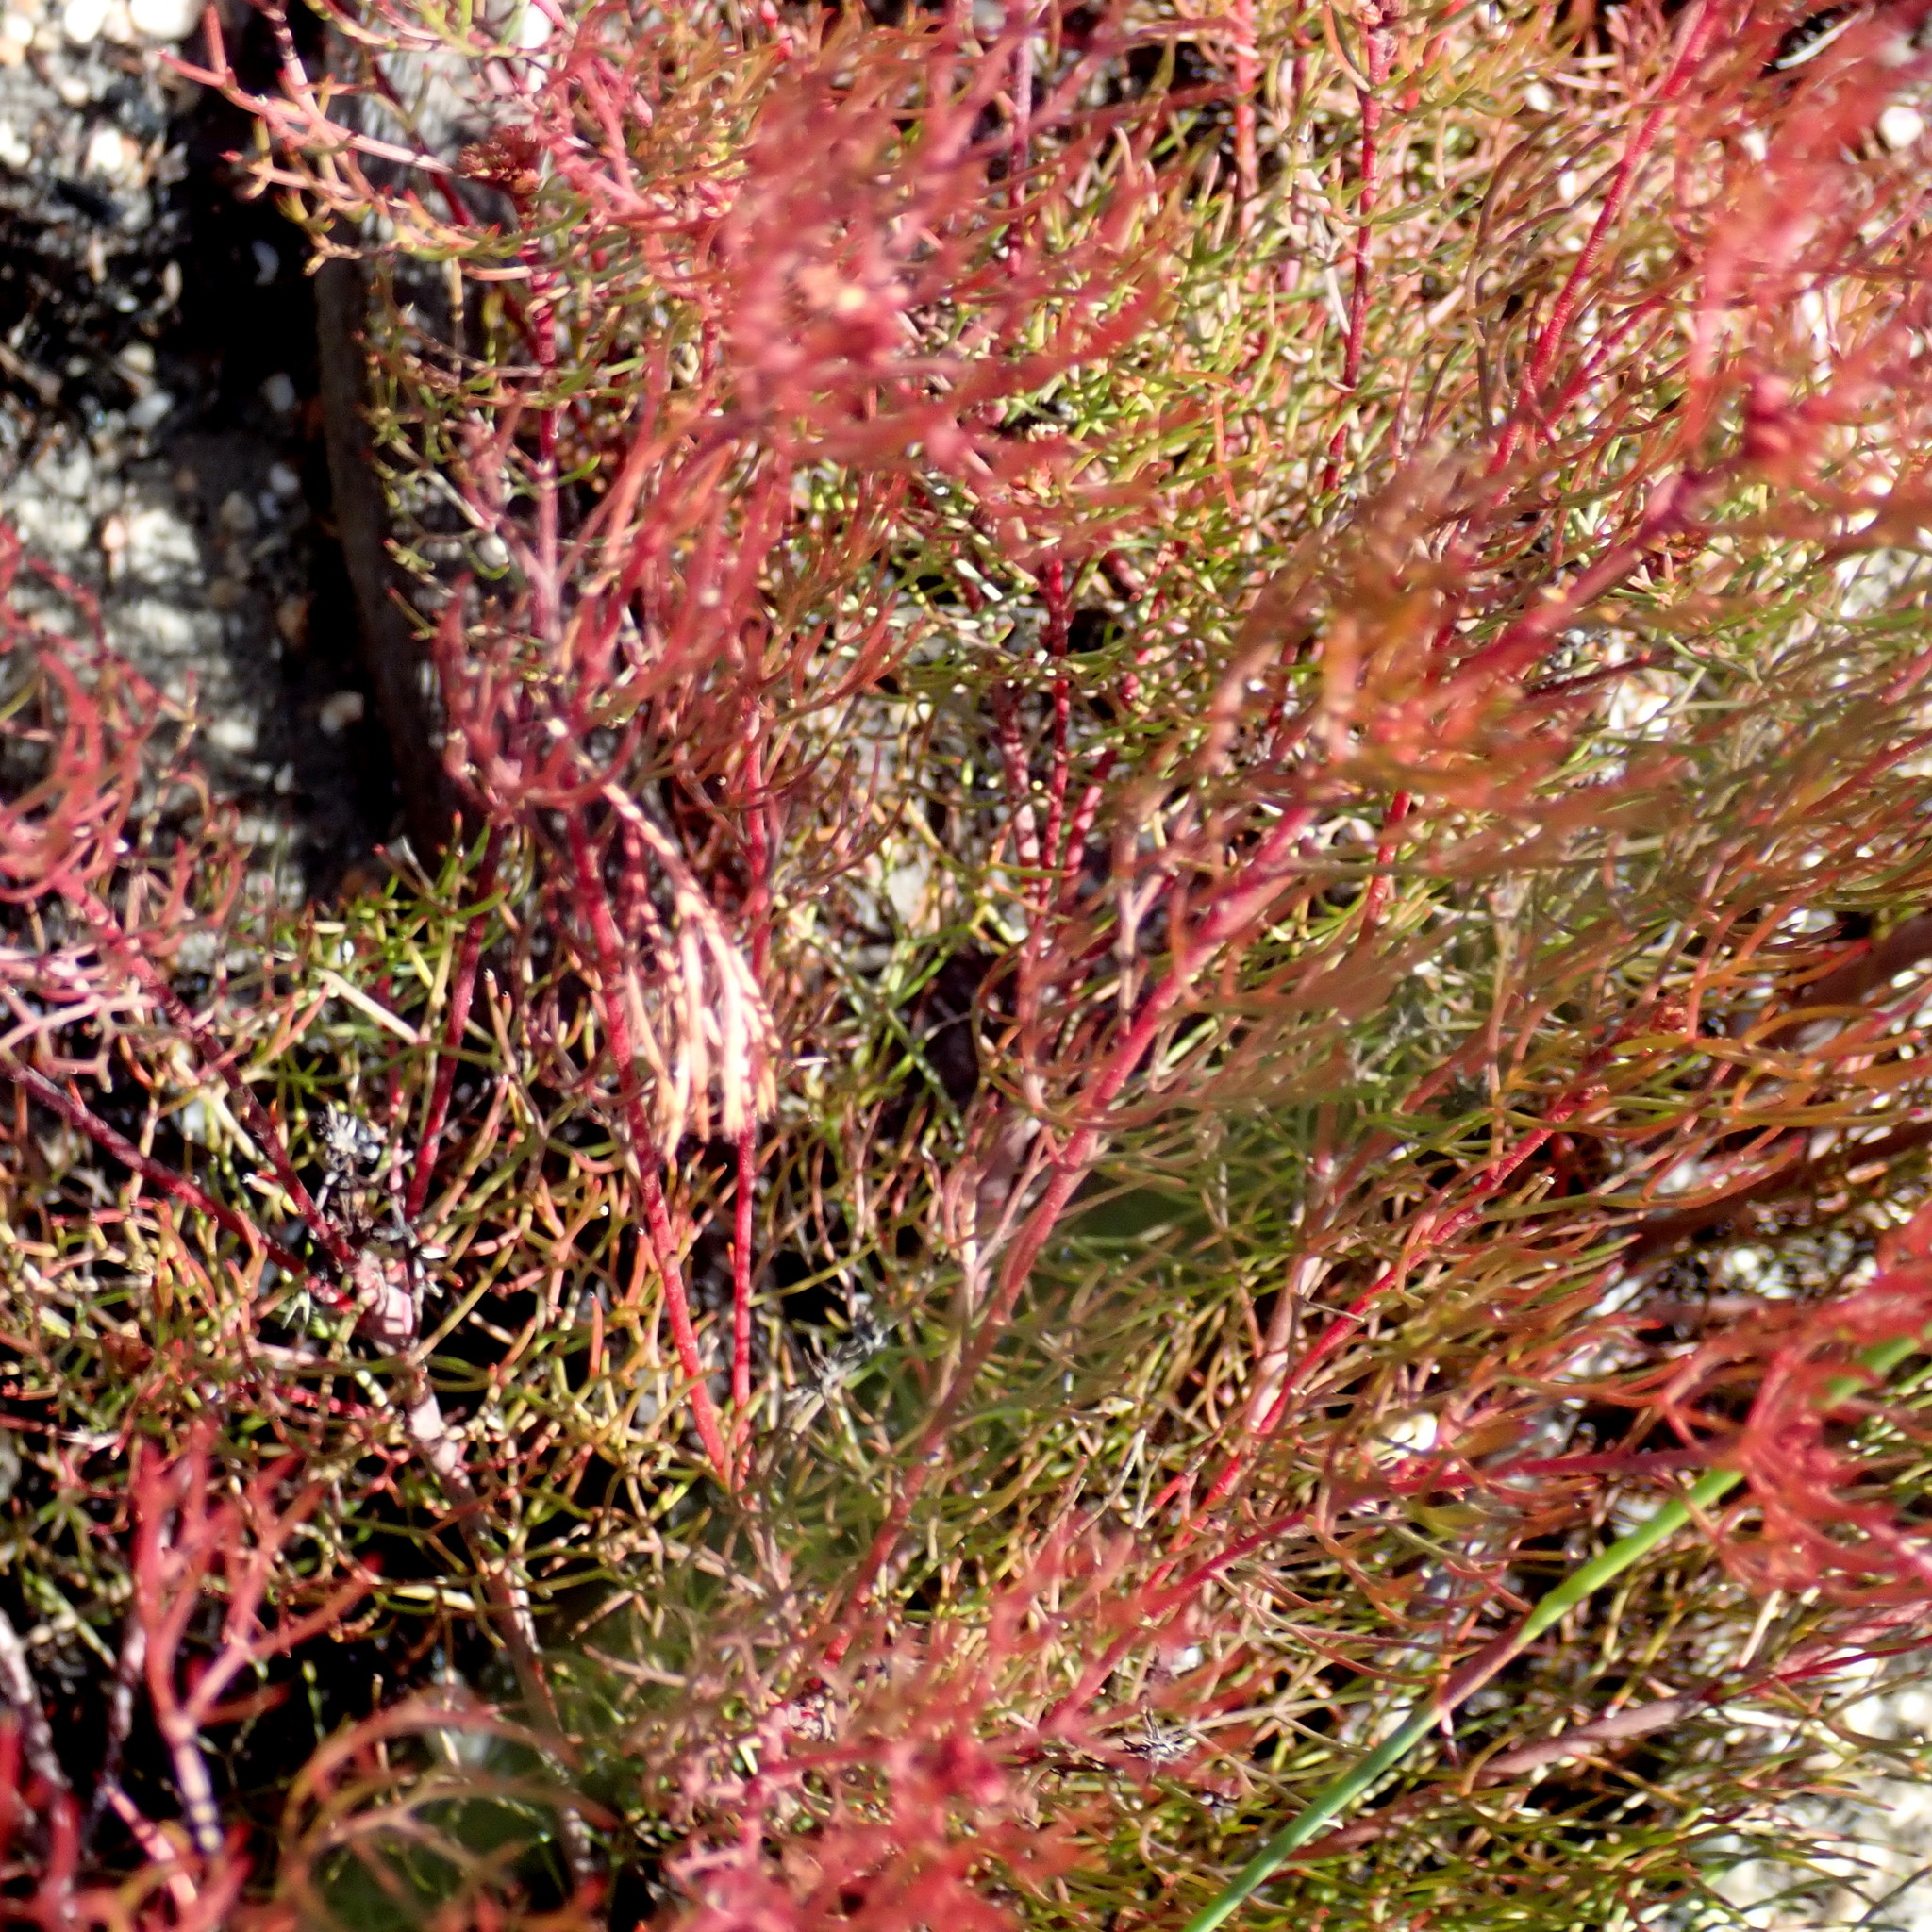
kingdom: Plantae
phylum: Tracheophyta
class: Magnoliopsida
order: Proteales
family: Proteaceae
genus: Serruria
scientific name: Serruria fasciflora
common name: Common pin spiderhead
